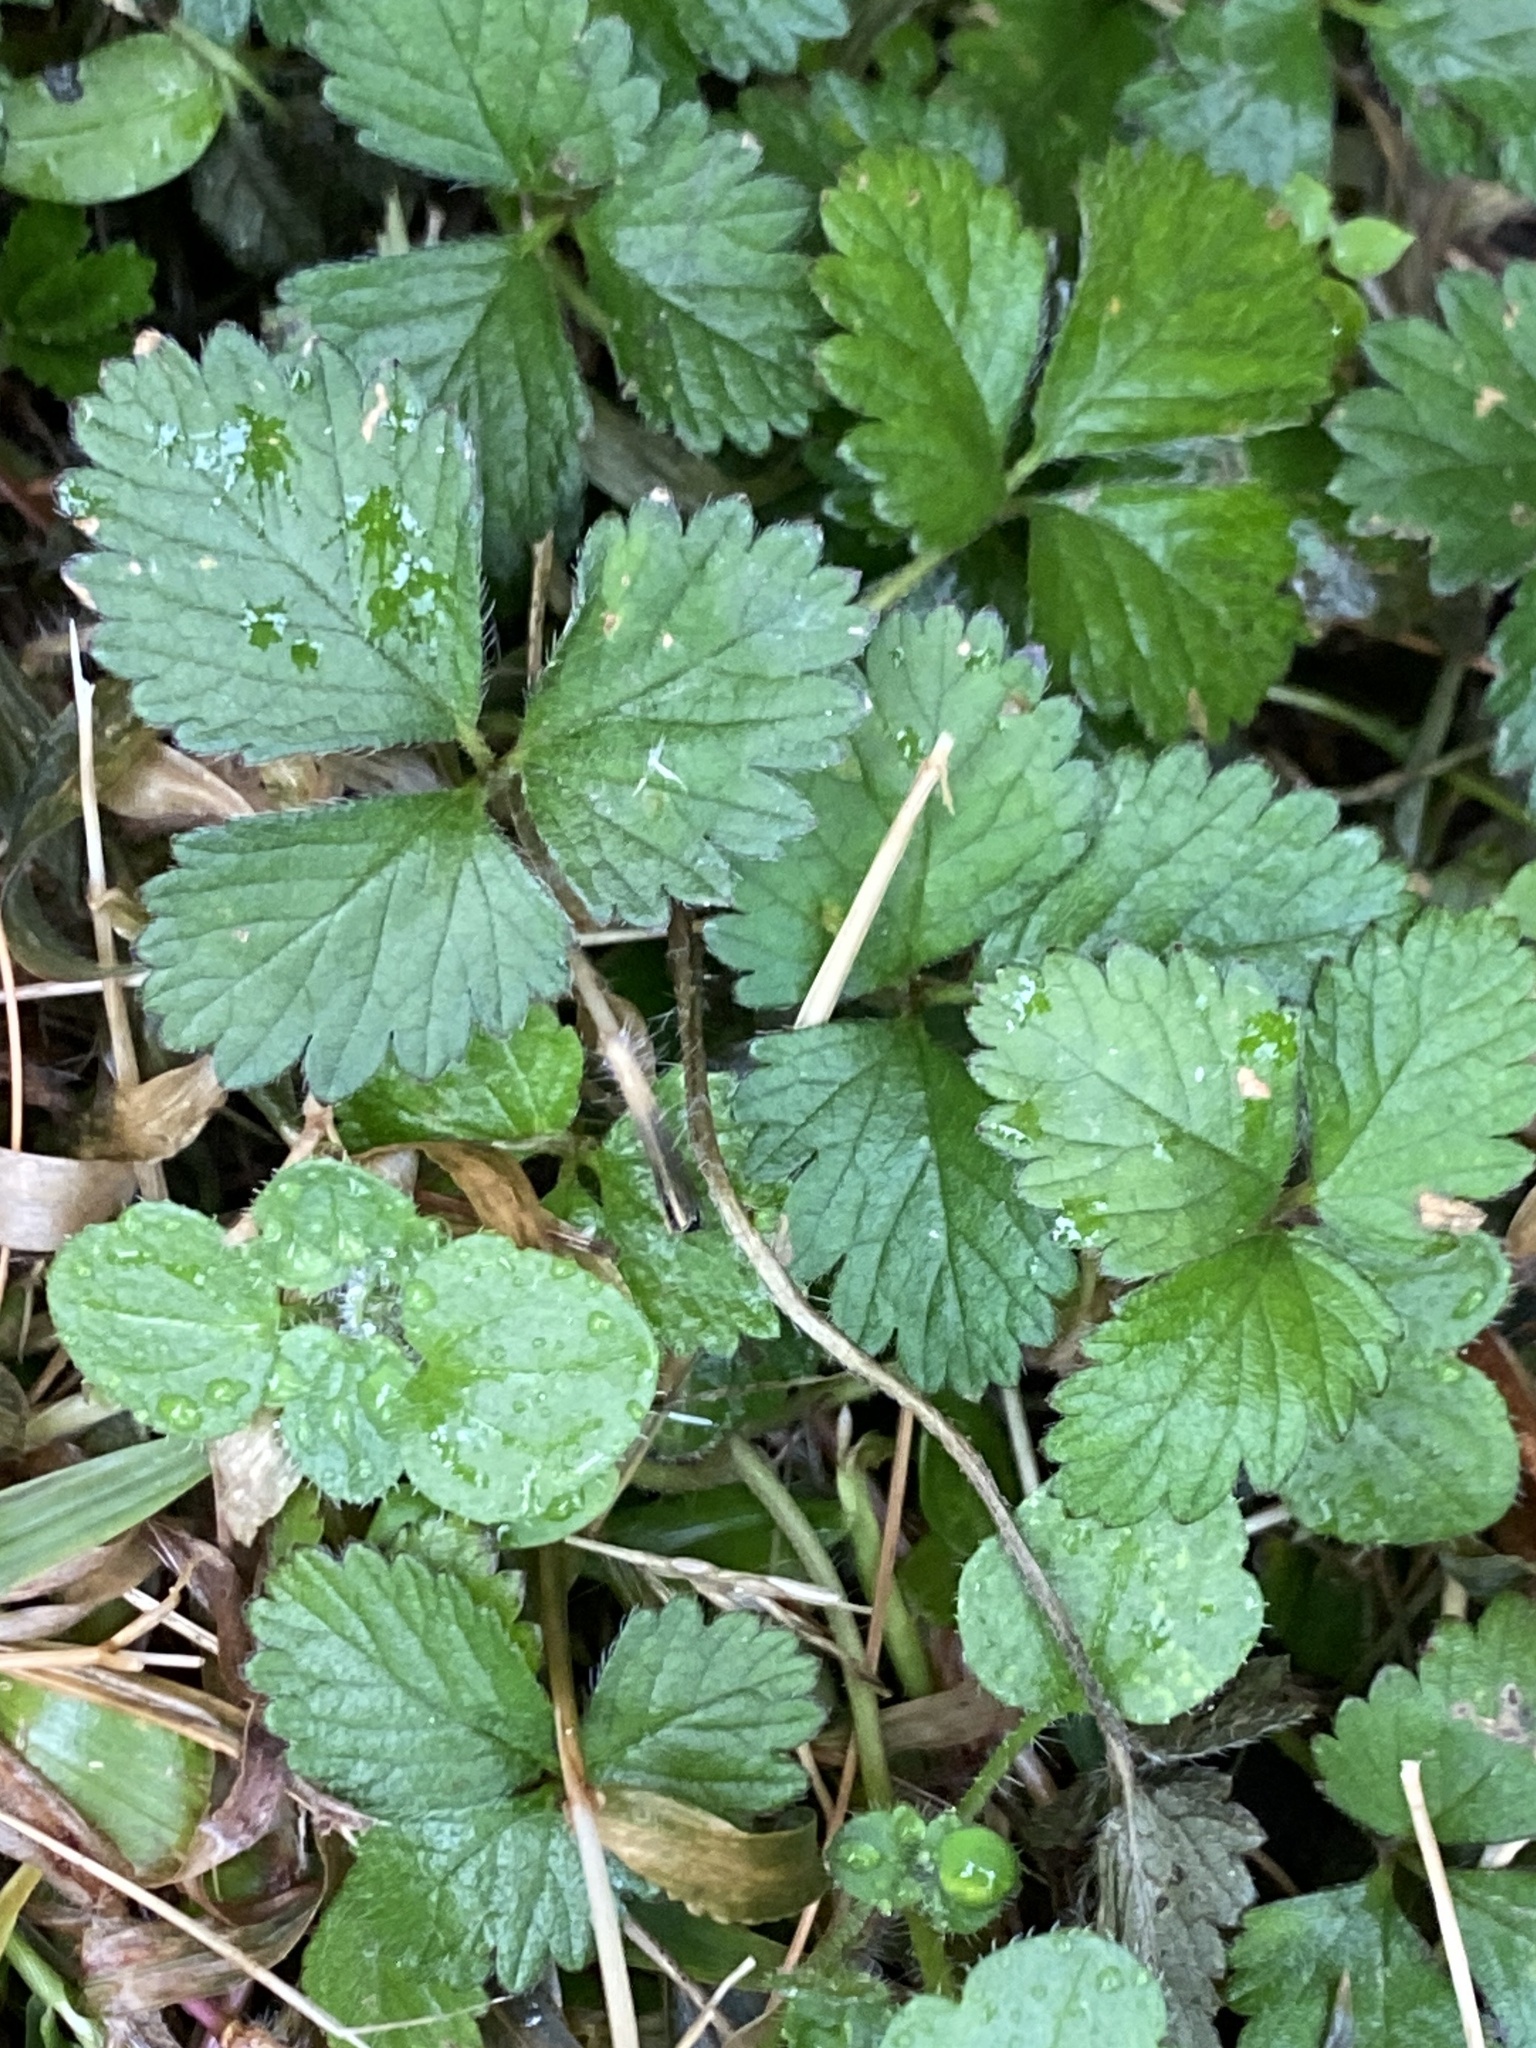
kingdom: Plantae
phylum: Tracheophyta
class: Magnoliopsida
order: Rosales
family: Rosaceae
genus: Potentilla
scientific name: Potentilla indica
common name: Yellow-flowered strawberry
